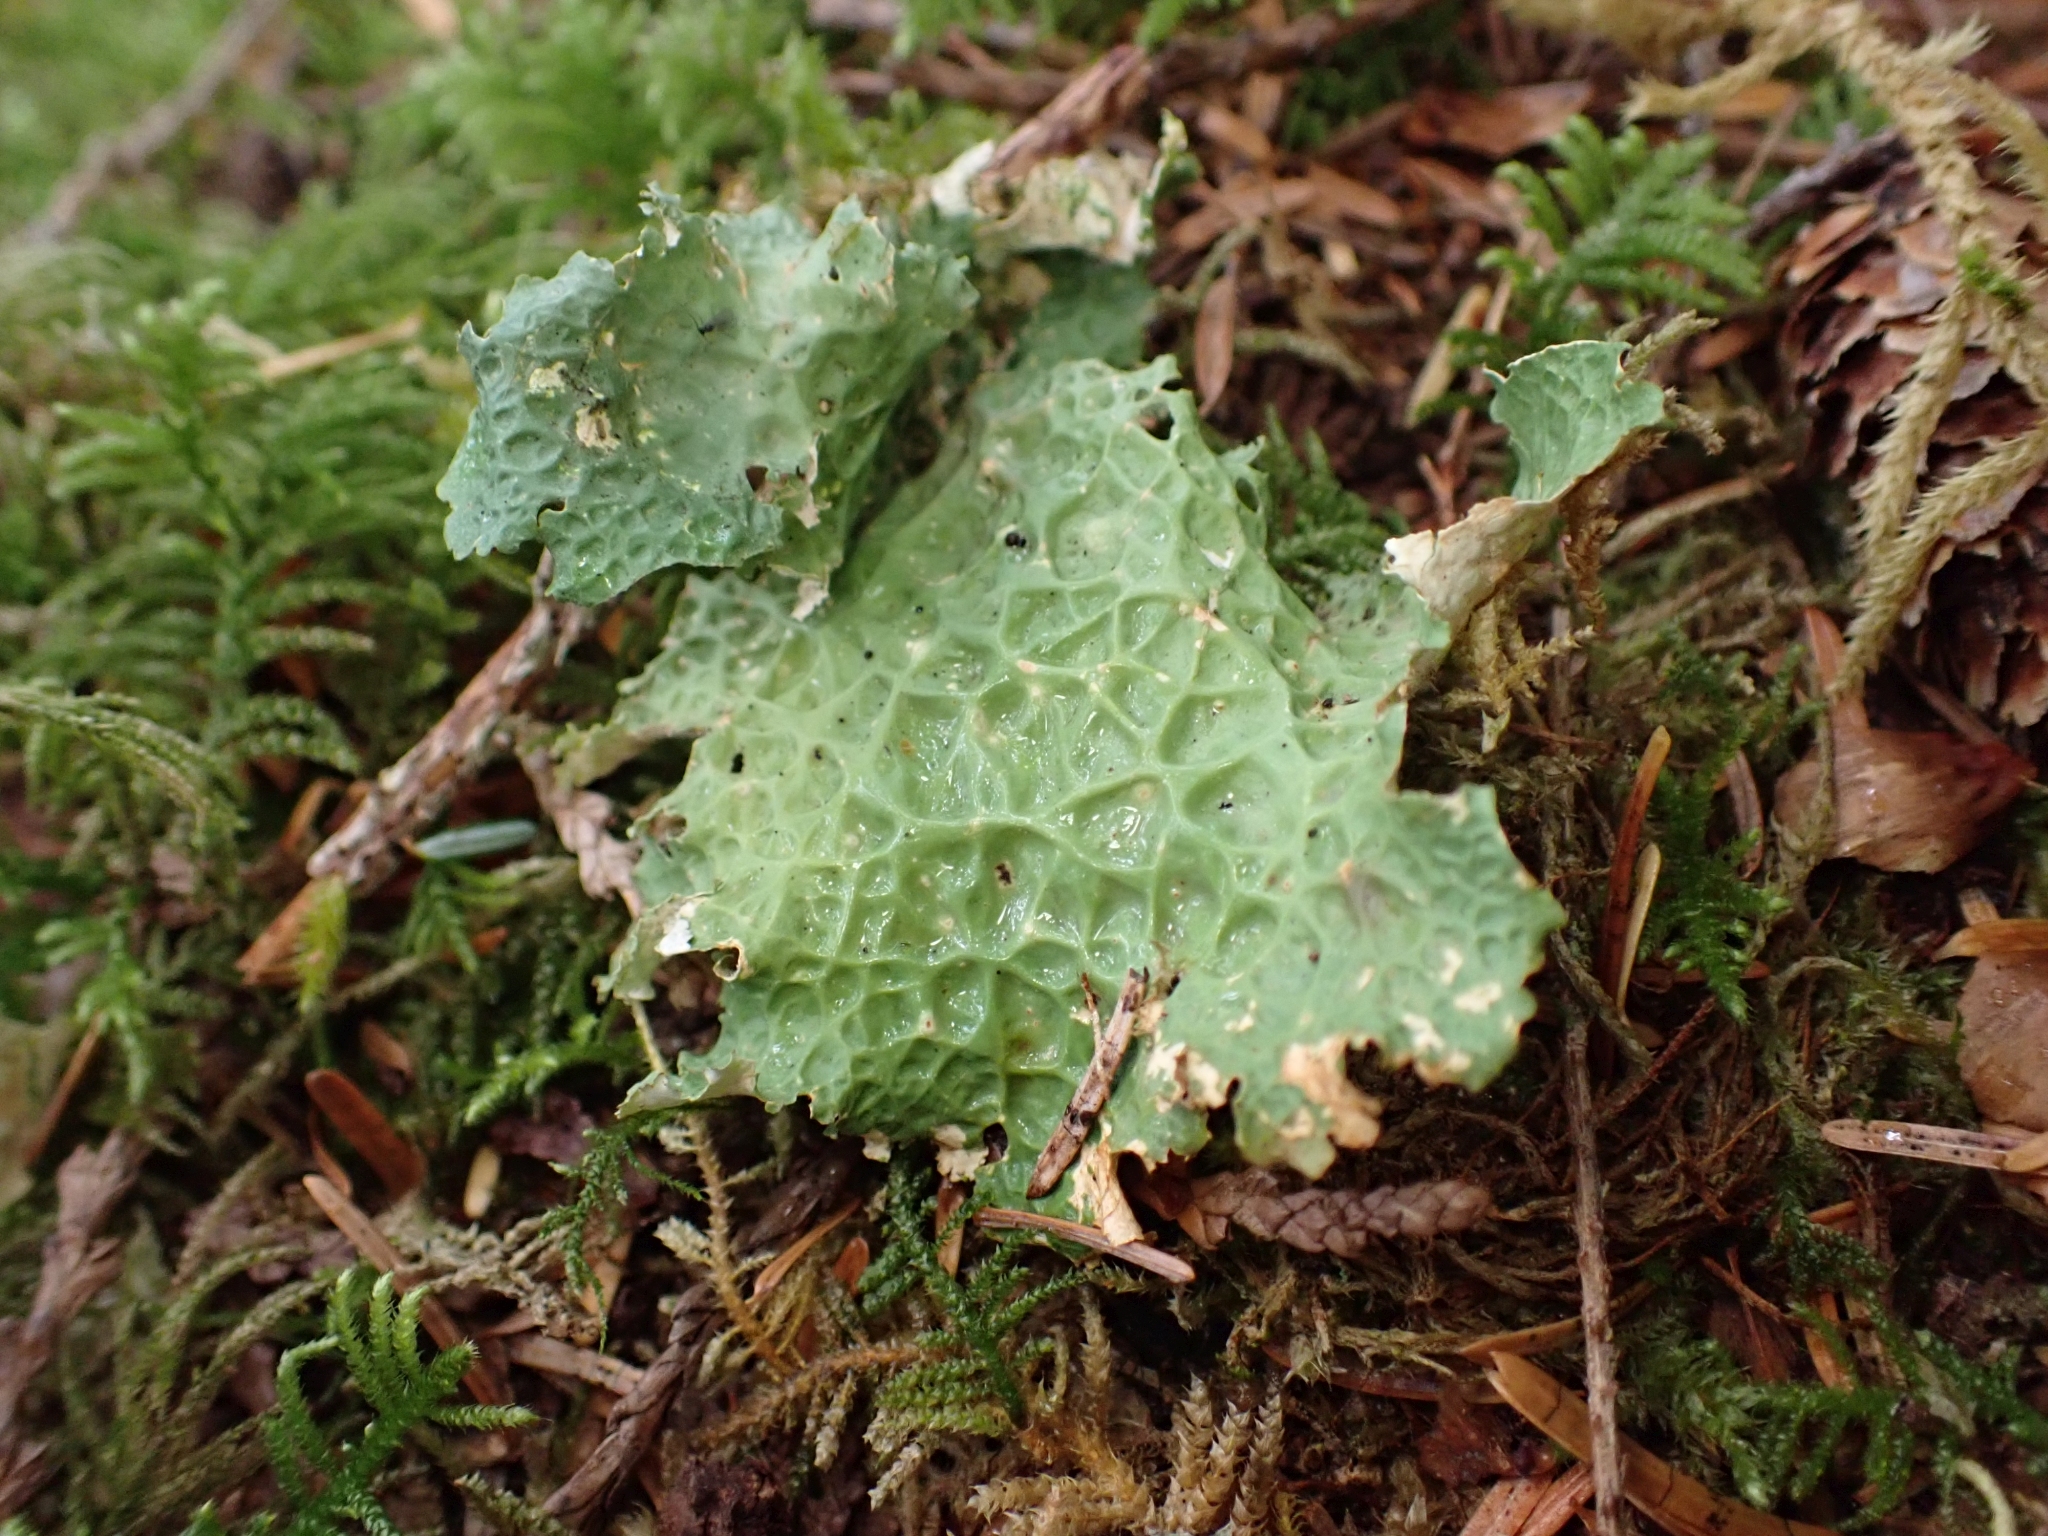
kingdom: Fungi
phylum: Ascomycota
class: Lecanoromycetes
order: Peltigerales
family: Lobariaceae
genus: Lobaria
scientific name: Lobaria oregana
